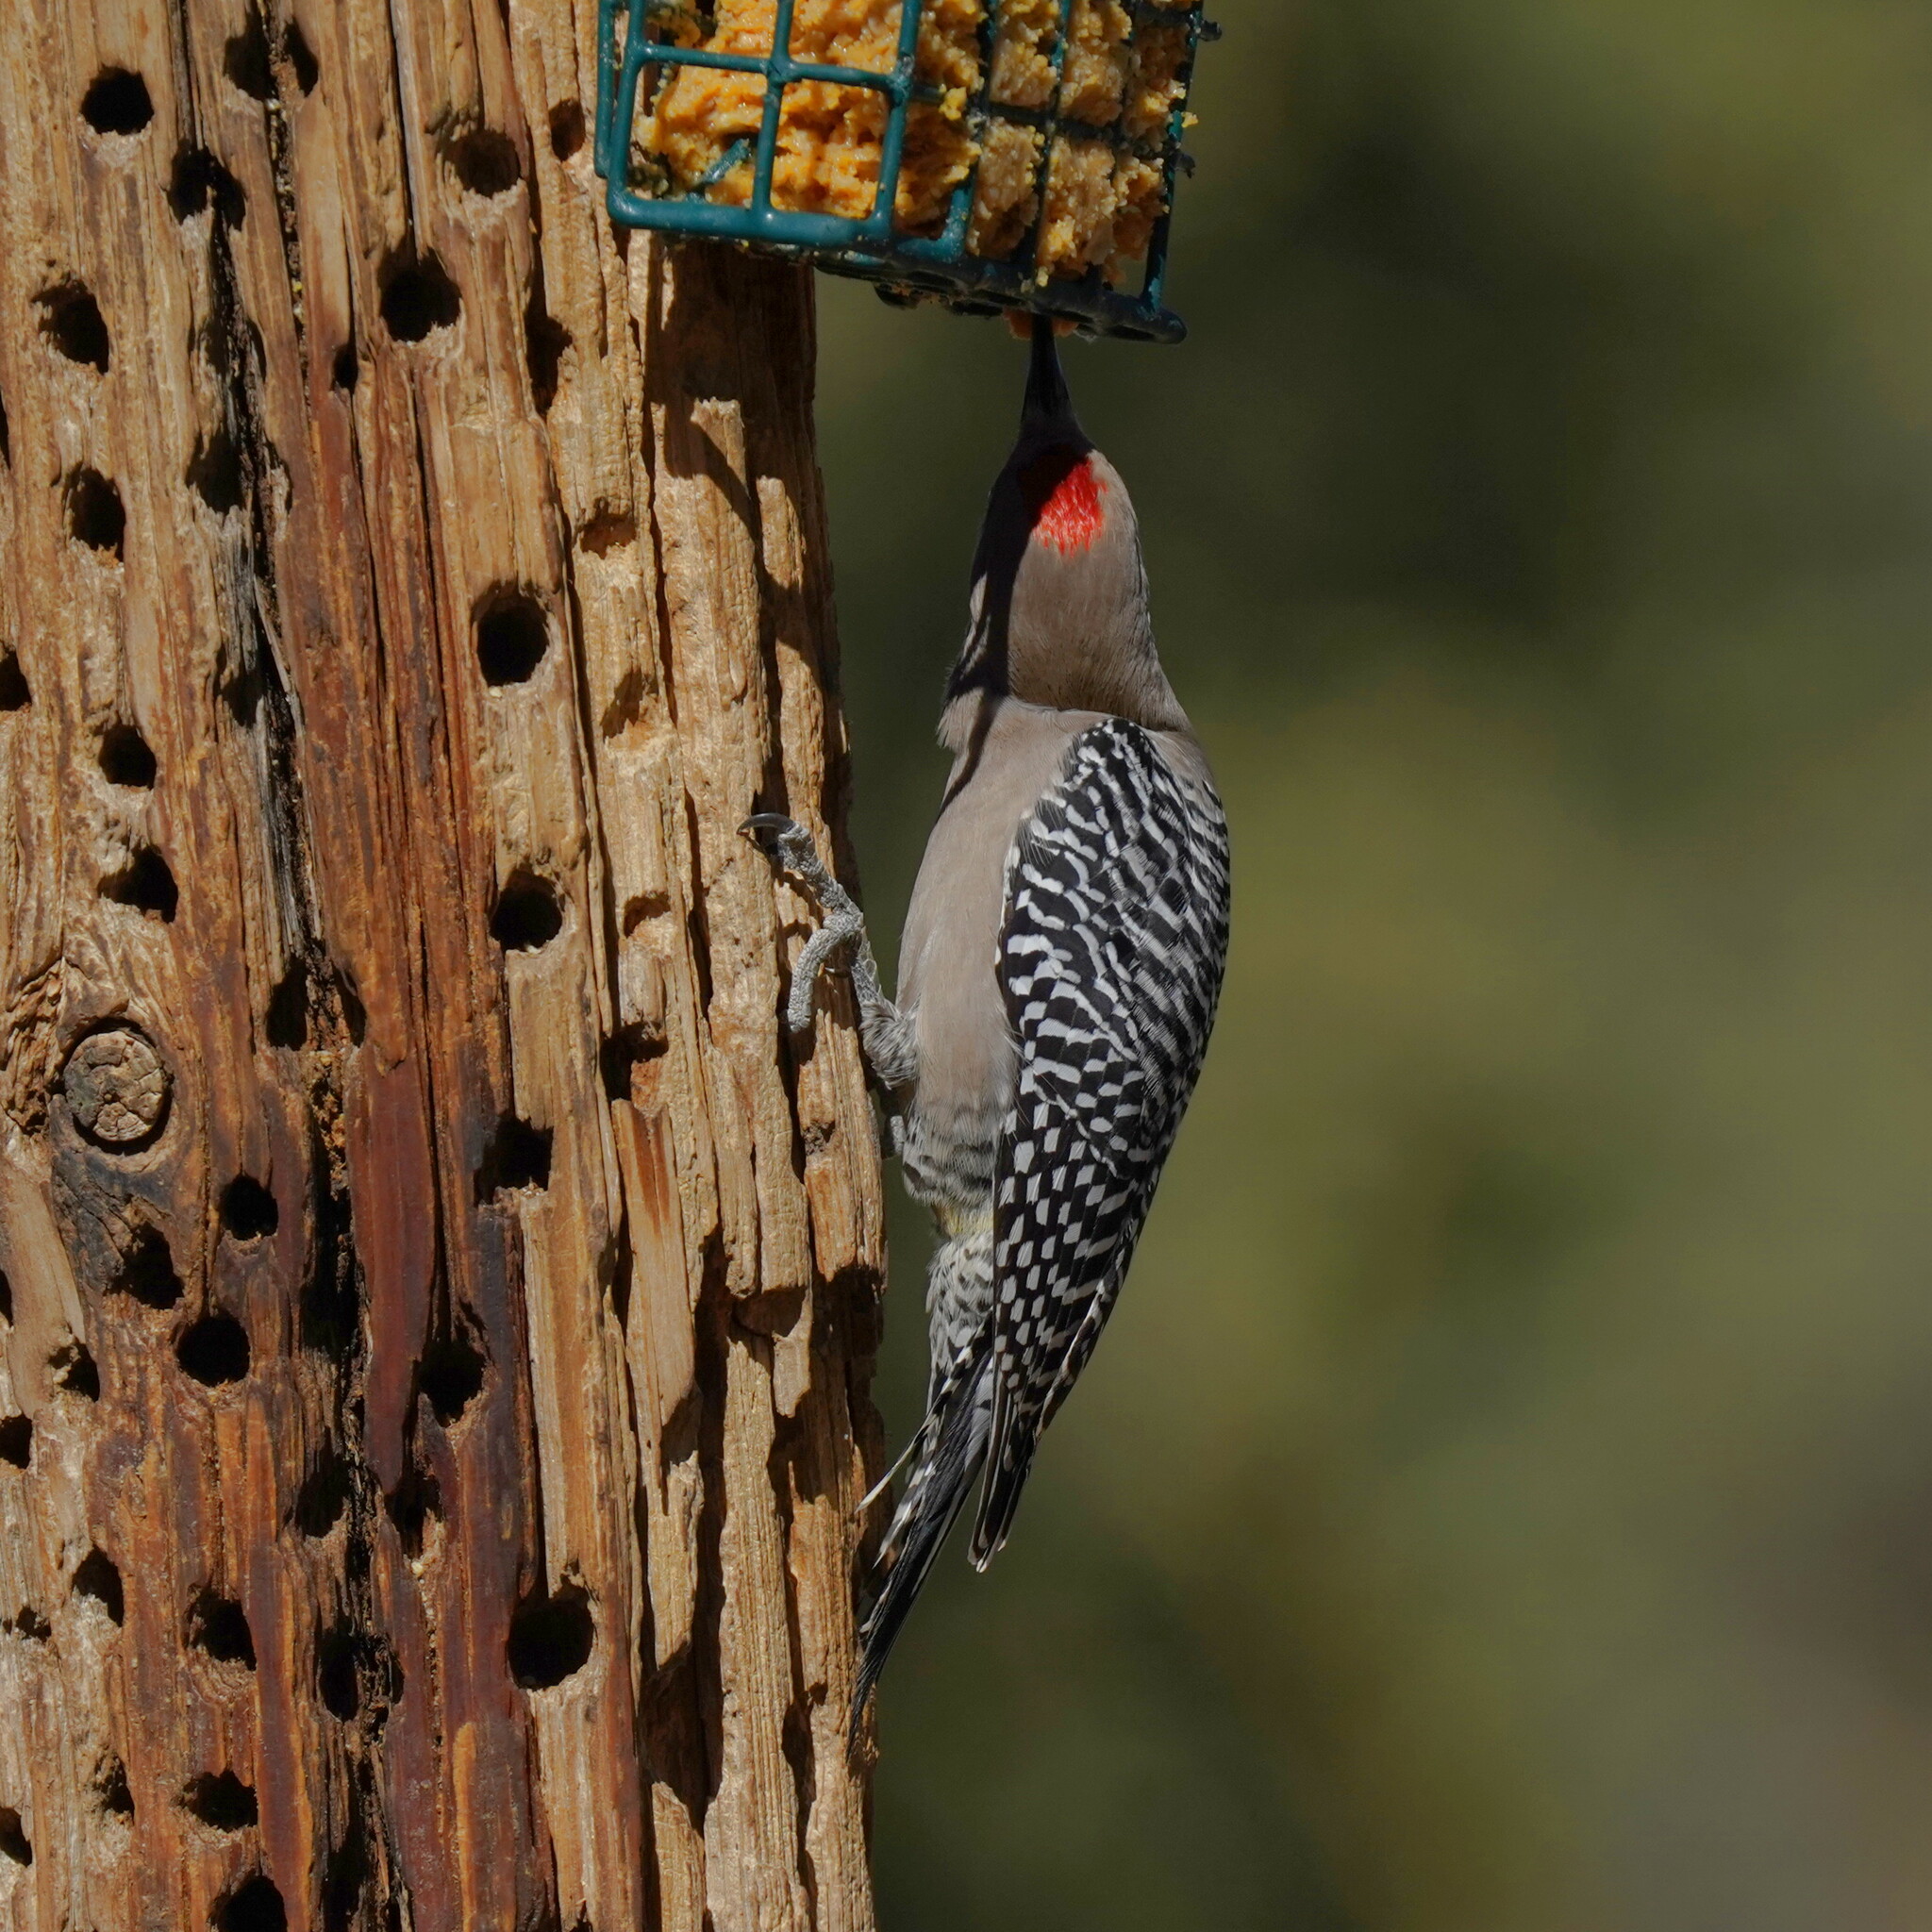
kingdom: Animalia
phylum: Chordata
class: Aves
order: Piciformes
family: Picidae
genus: Melanerpes
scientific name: Melanerpes uropygialis
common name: Gila woodpecker
